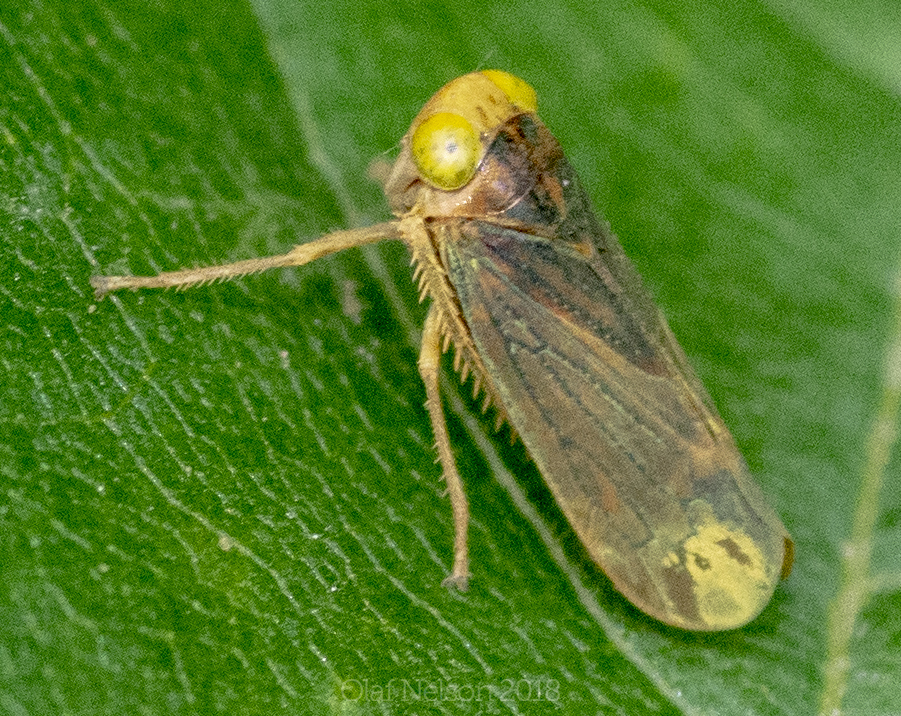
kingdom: Animalia
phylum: Arthropoda
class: Insecta
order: Hemiptera
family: Cicadellidae
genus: Jikradia
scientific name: Jikradia olitoria
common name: Coppery leafhopper
